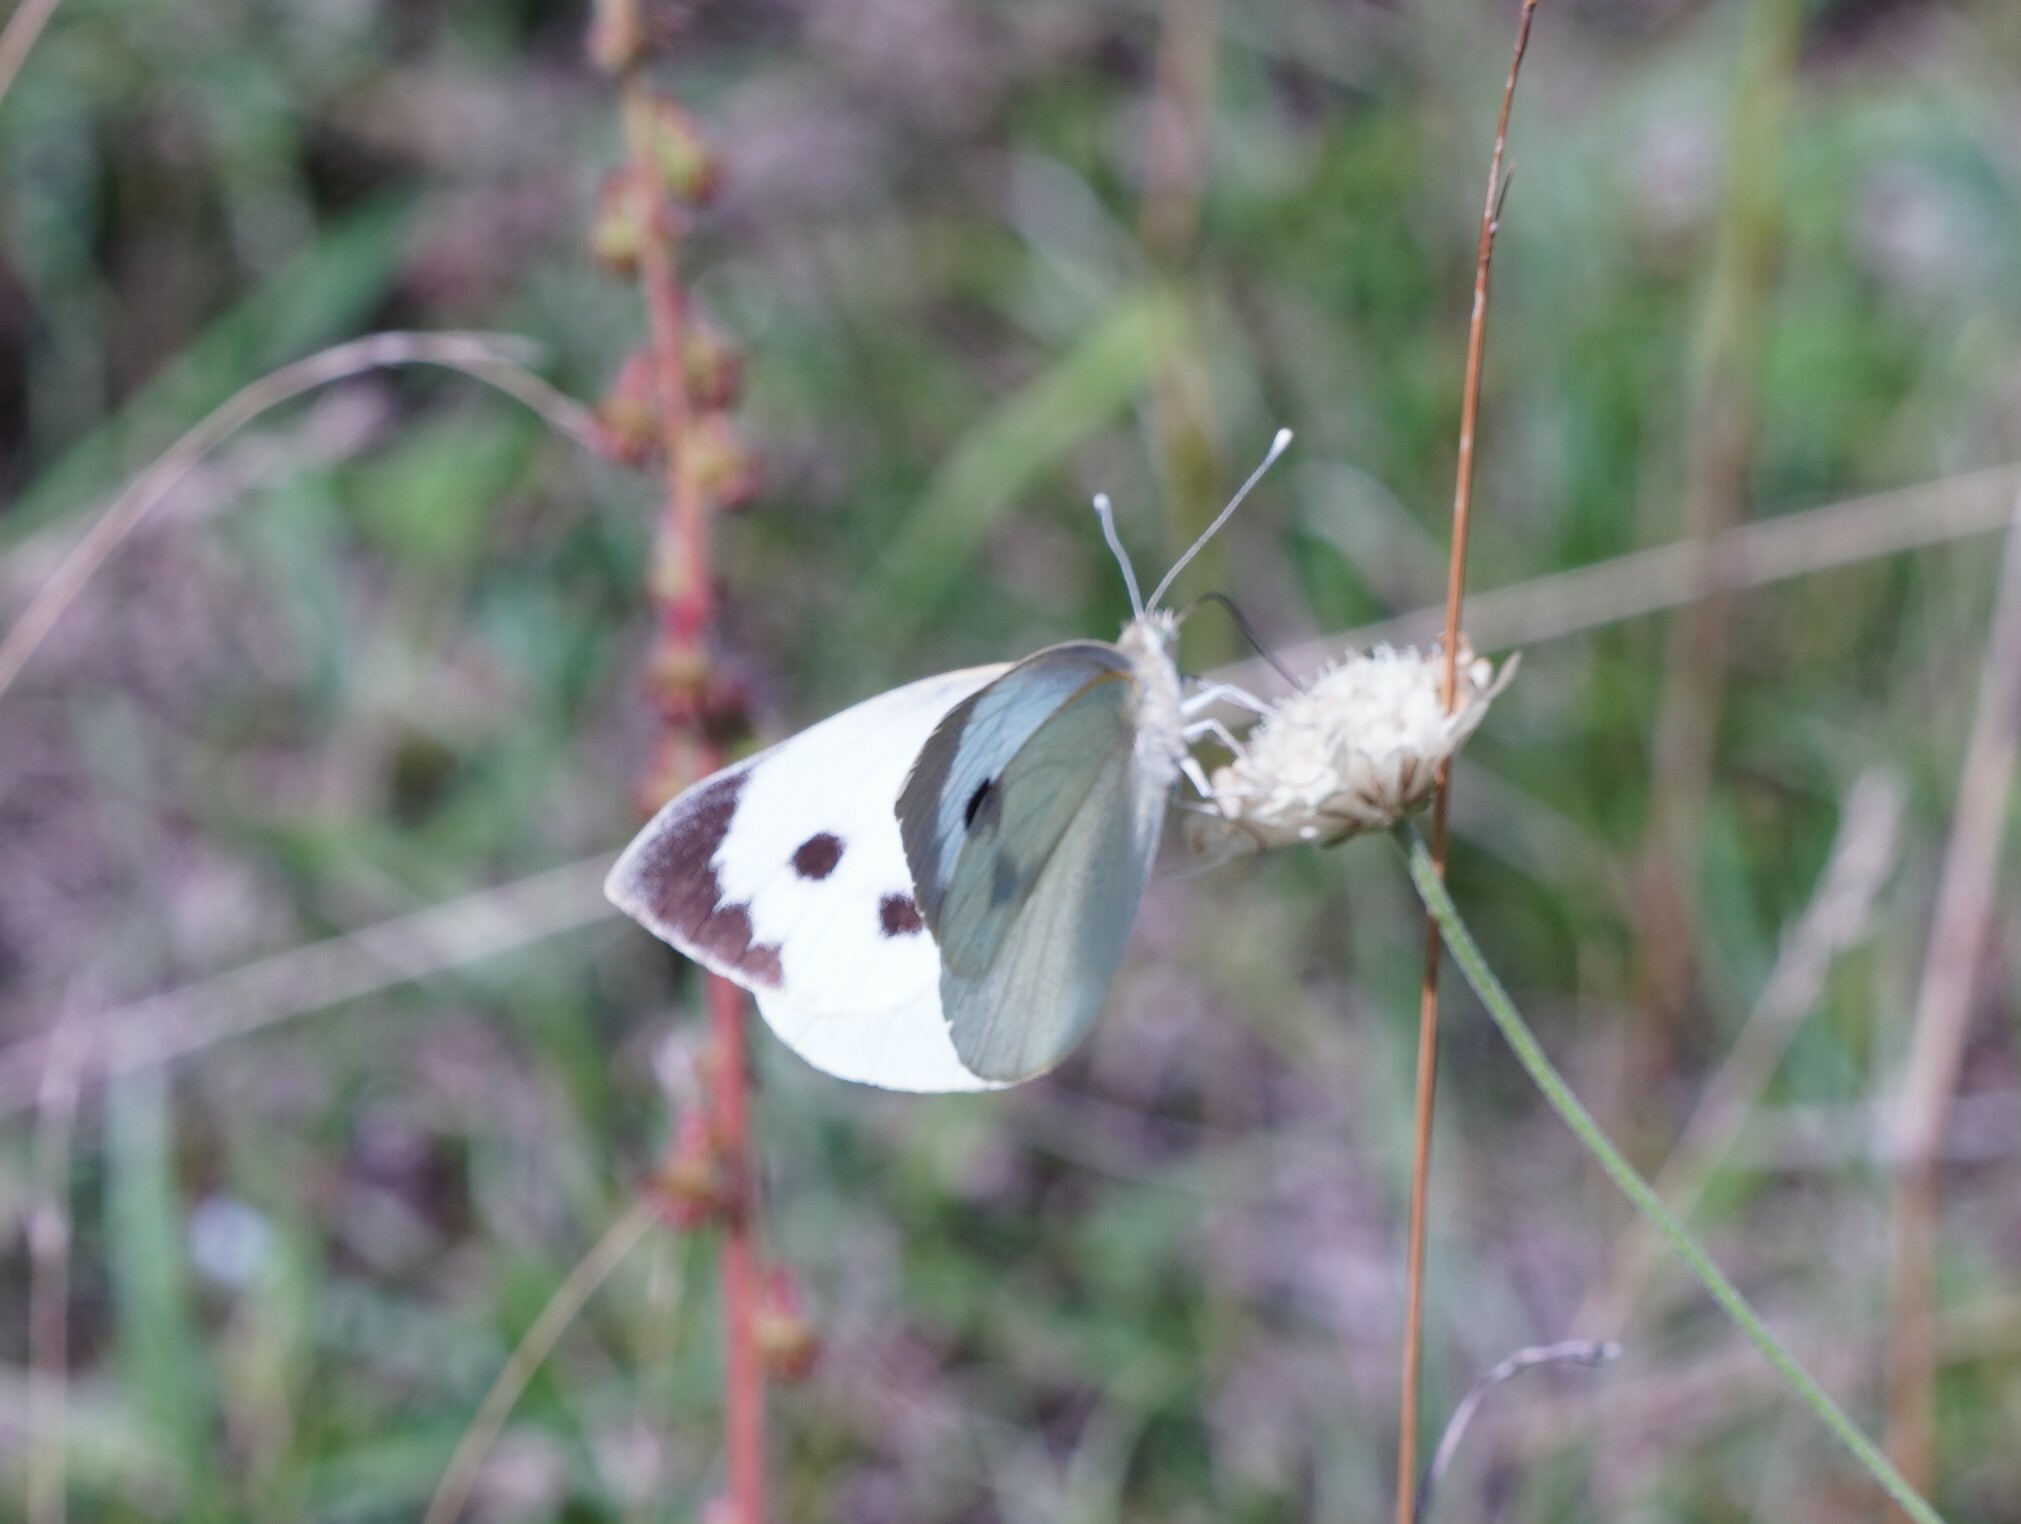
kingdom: Animalia
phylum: Arthropoda
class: Insecta
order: Lepidoptera
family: Pieridae
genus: Pieris
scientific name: Pieris brassicae
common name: Large white
